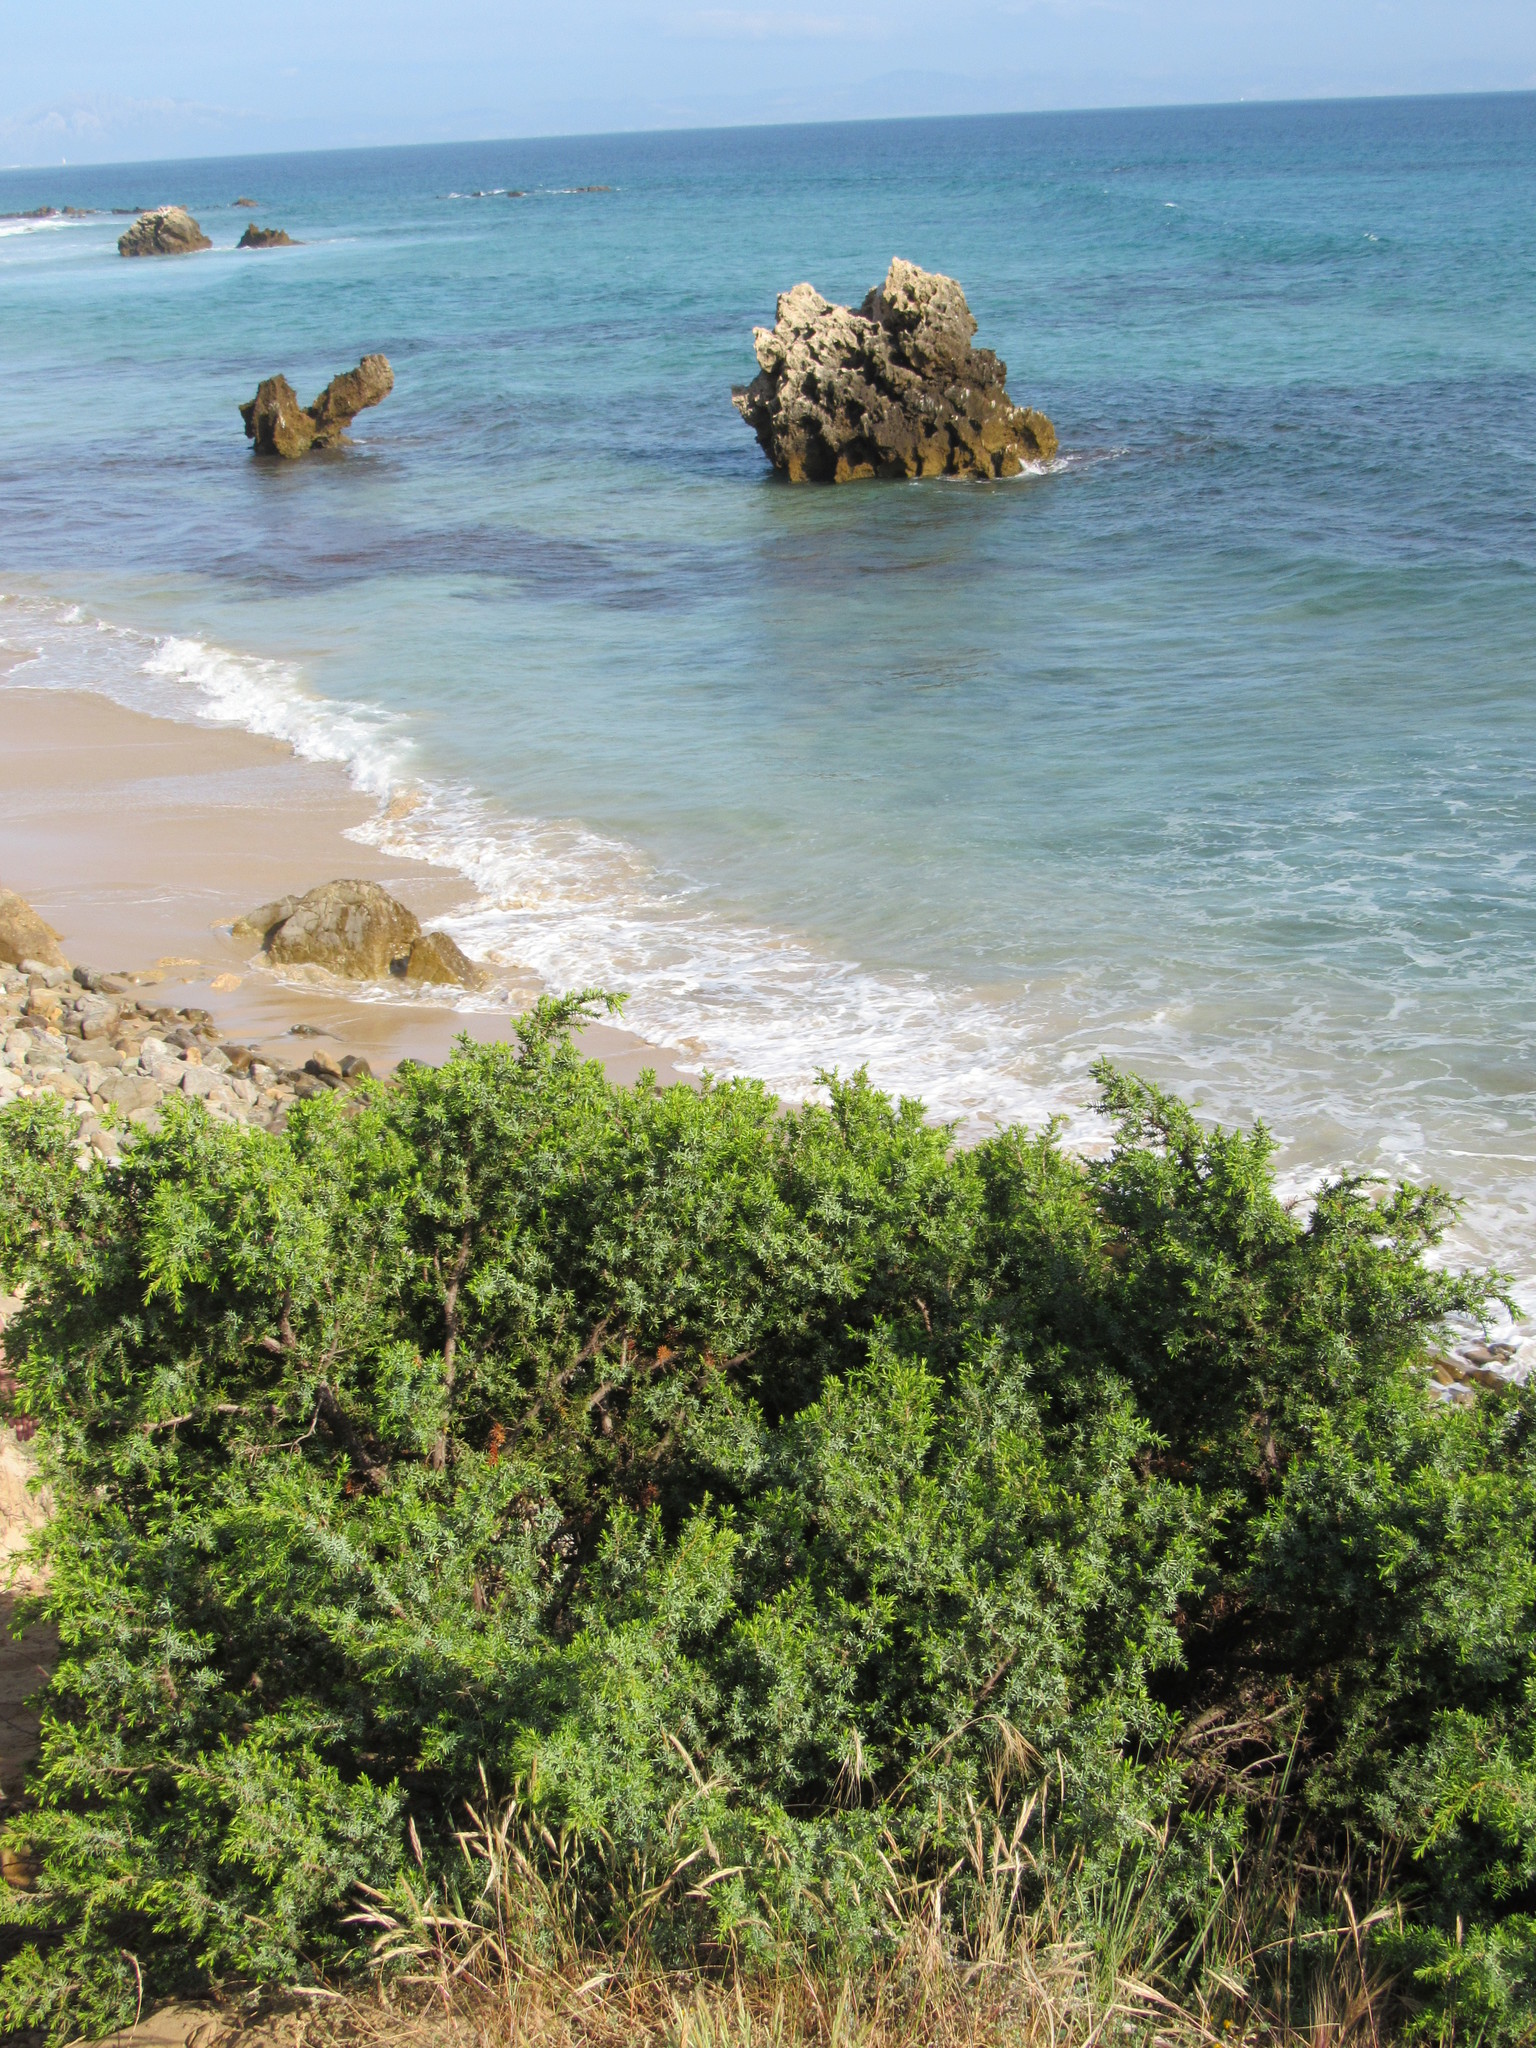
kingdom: Plantae
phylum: Tracheophyta
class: Pinopsida
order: Pinales
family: Cupressaceae
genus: Juniperus
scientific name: Juniperus oxycedrus
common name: Prickly juniper
